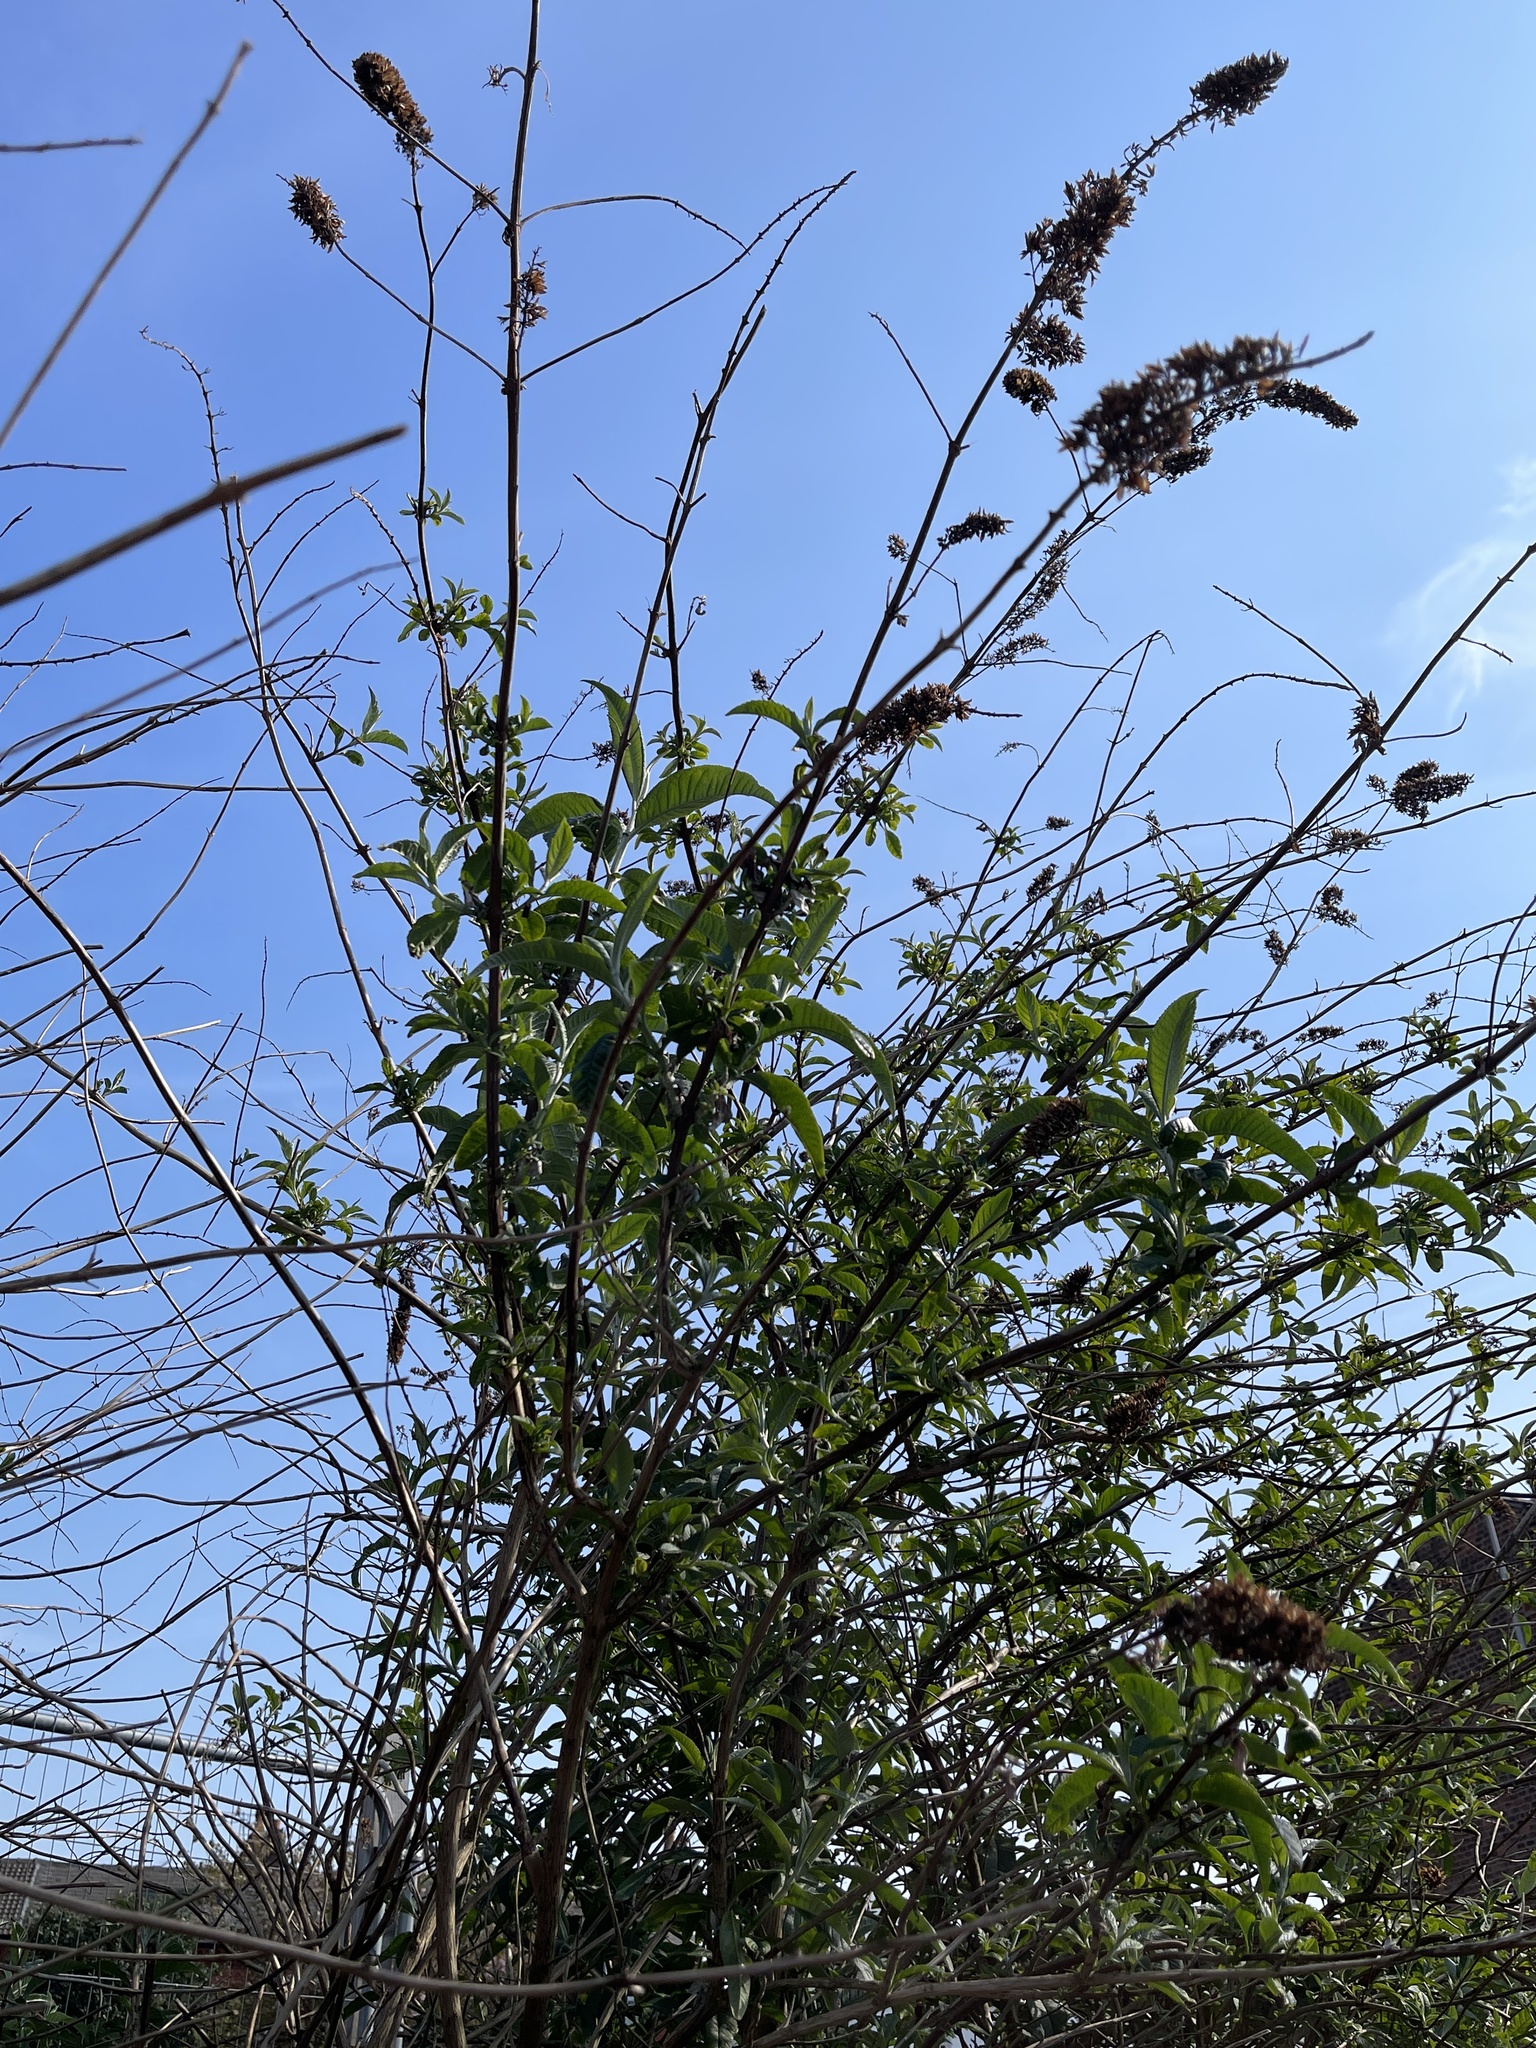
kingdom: Plantae
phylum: Tracheophyta
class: Magnoliopsida
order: Lamiales
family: Scrophulariaceae
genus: Buddleja
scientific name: Buddleja davidii
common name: Butterfly-bush
